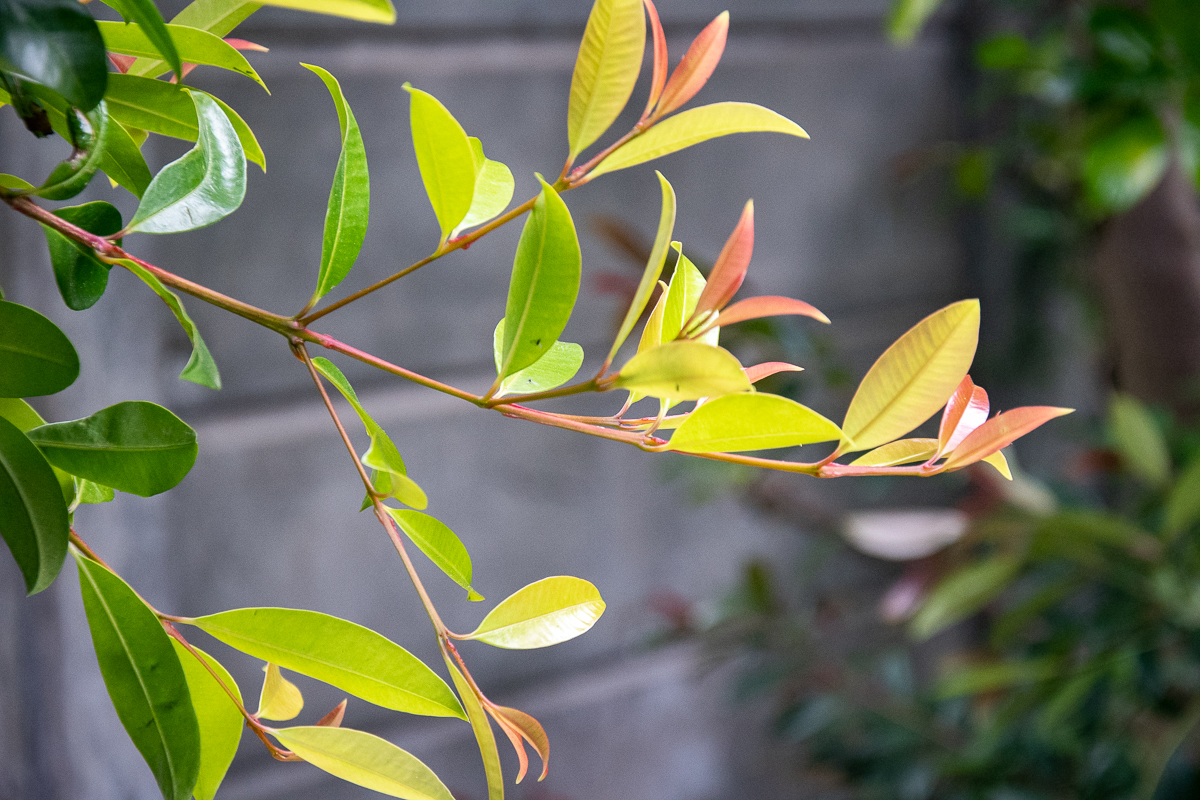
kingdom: Plantae
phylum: Tracheophyta
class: Magnoliopsida
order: Myrtales
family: Myrtaceae
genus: Syzygium
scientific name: Syzygium australe
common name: Australian brush-cherry
